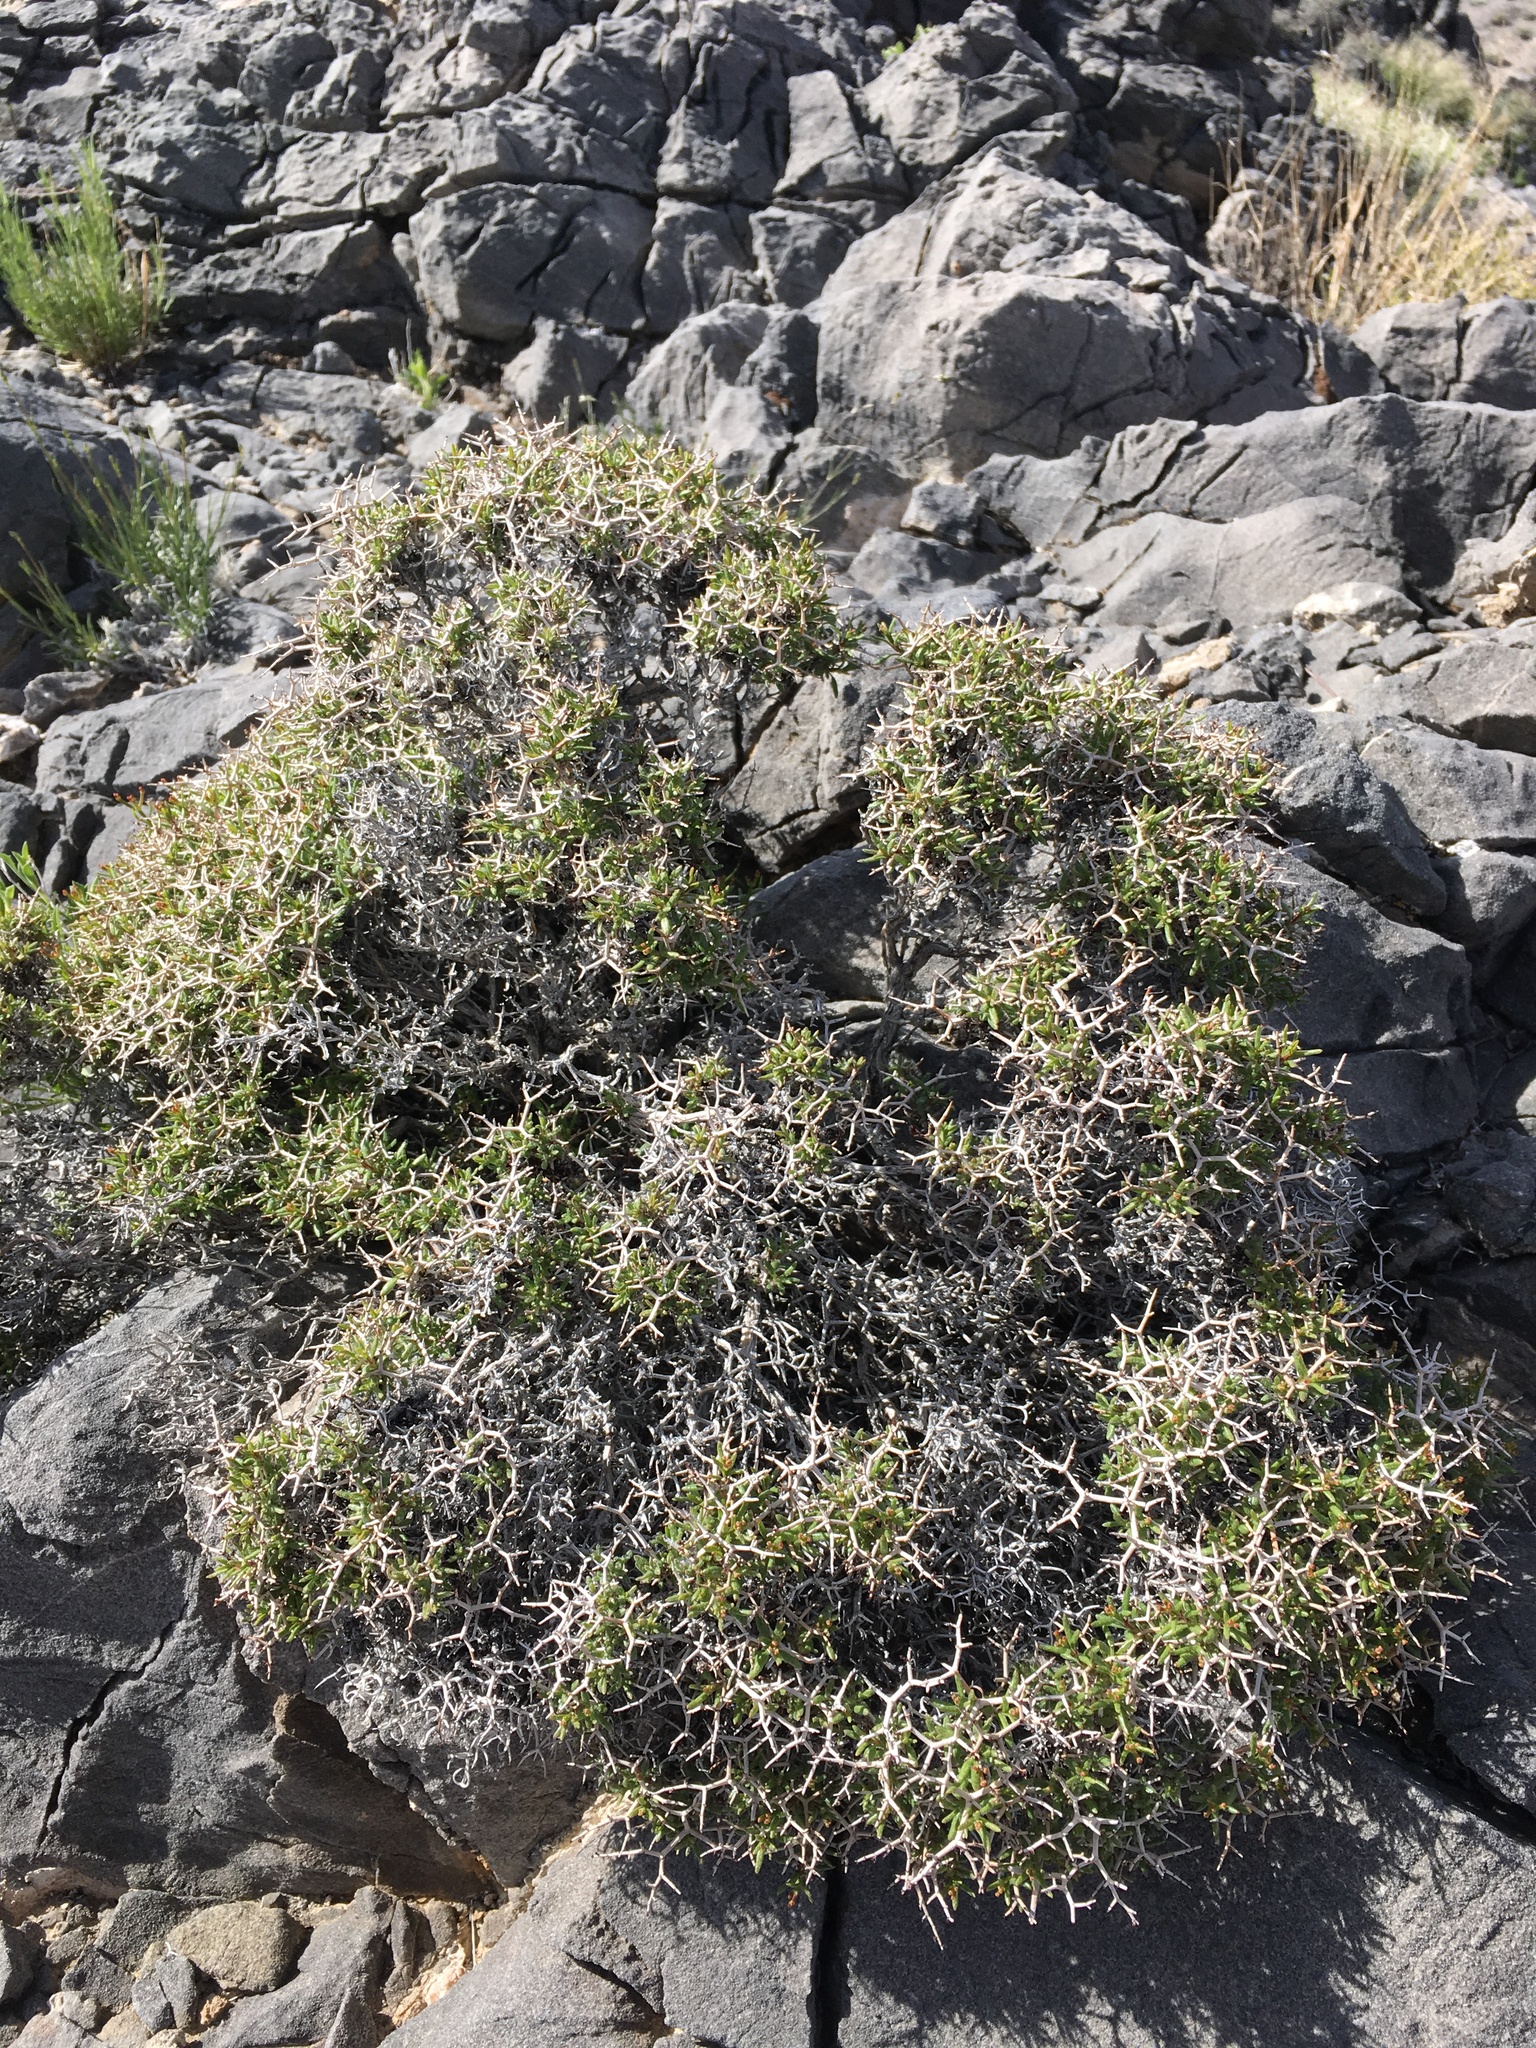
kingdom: Plantae
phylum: Tracheophyta
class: Magnoliopsida
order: Caryophyllales
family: Polygonaceae
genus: Eriogonum
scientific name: Eriogonum heermannii
